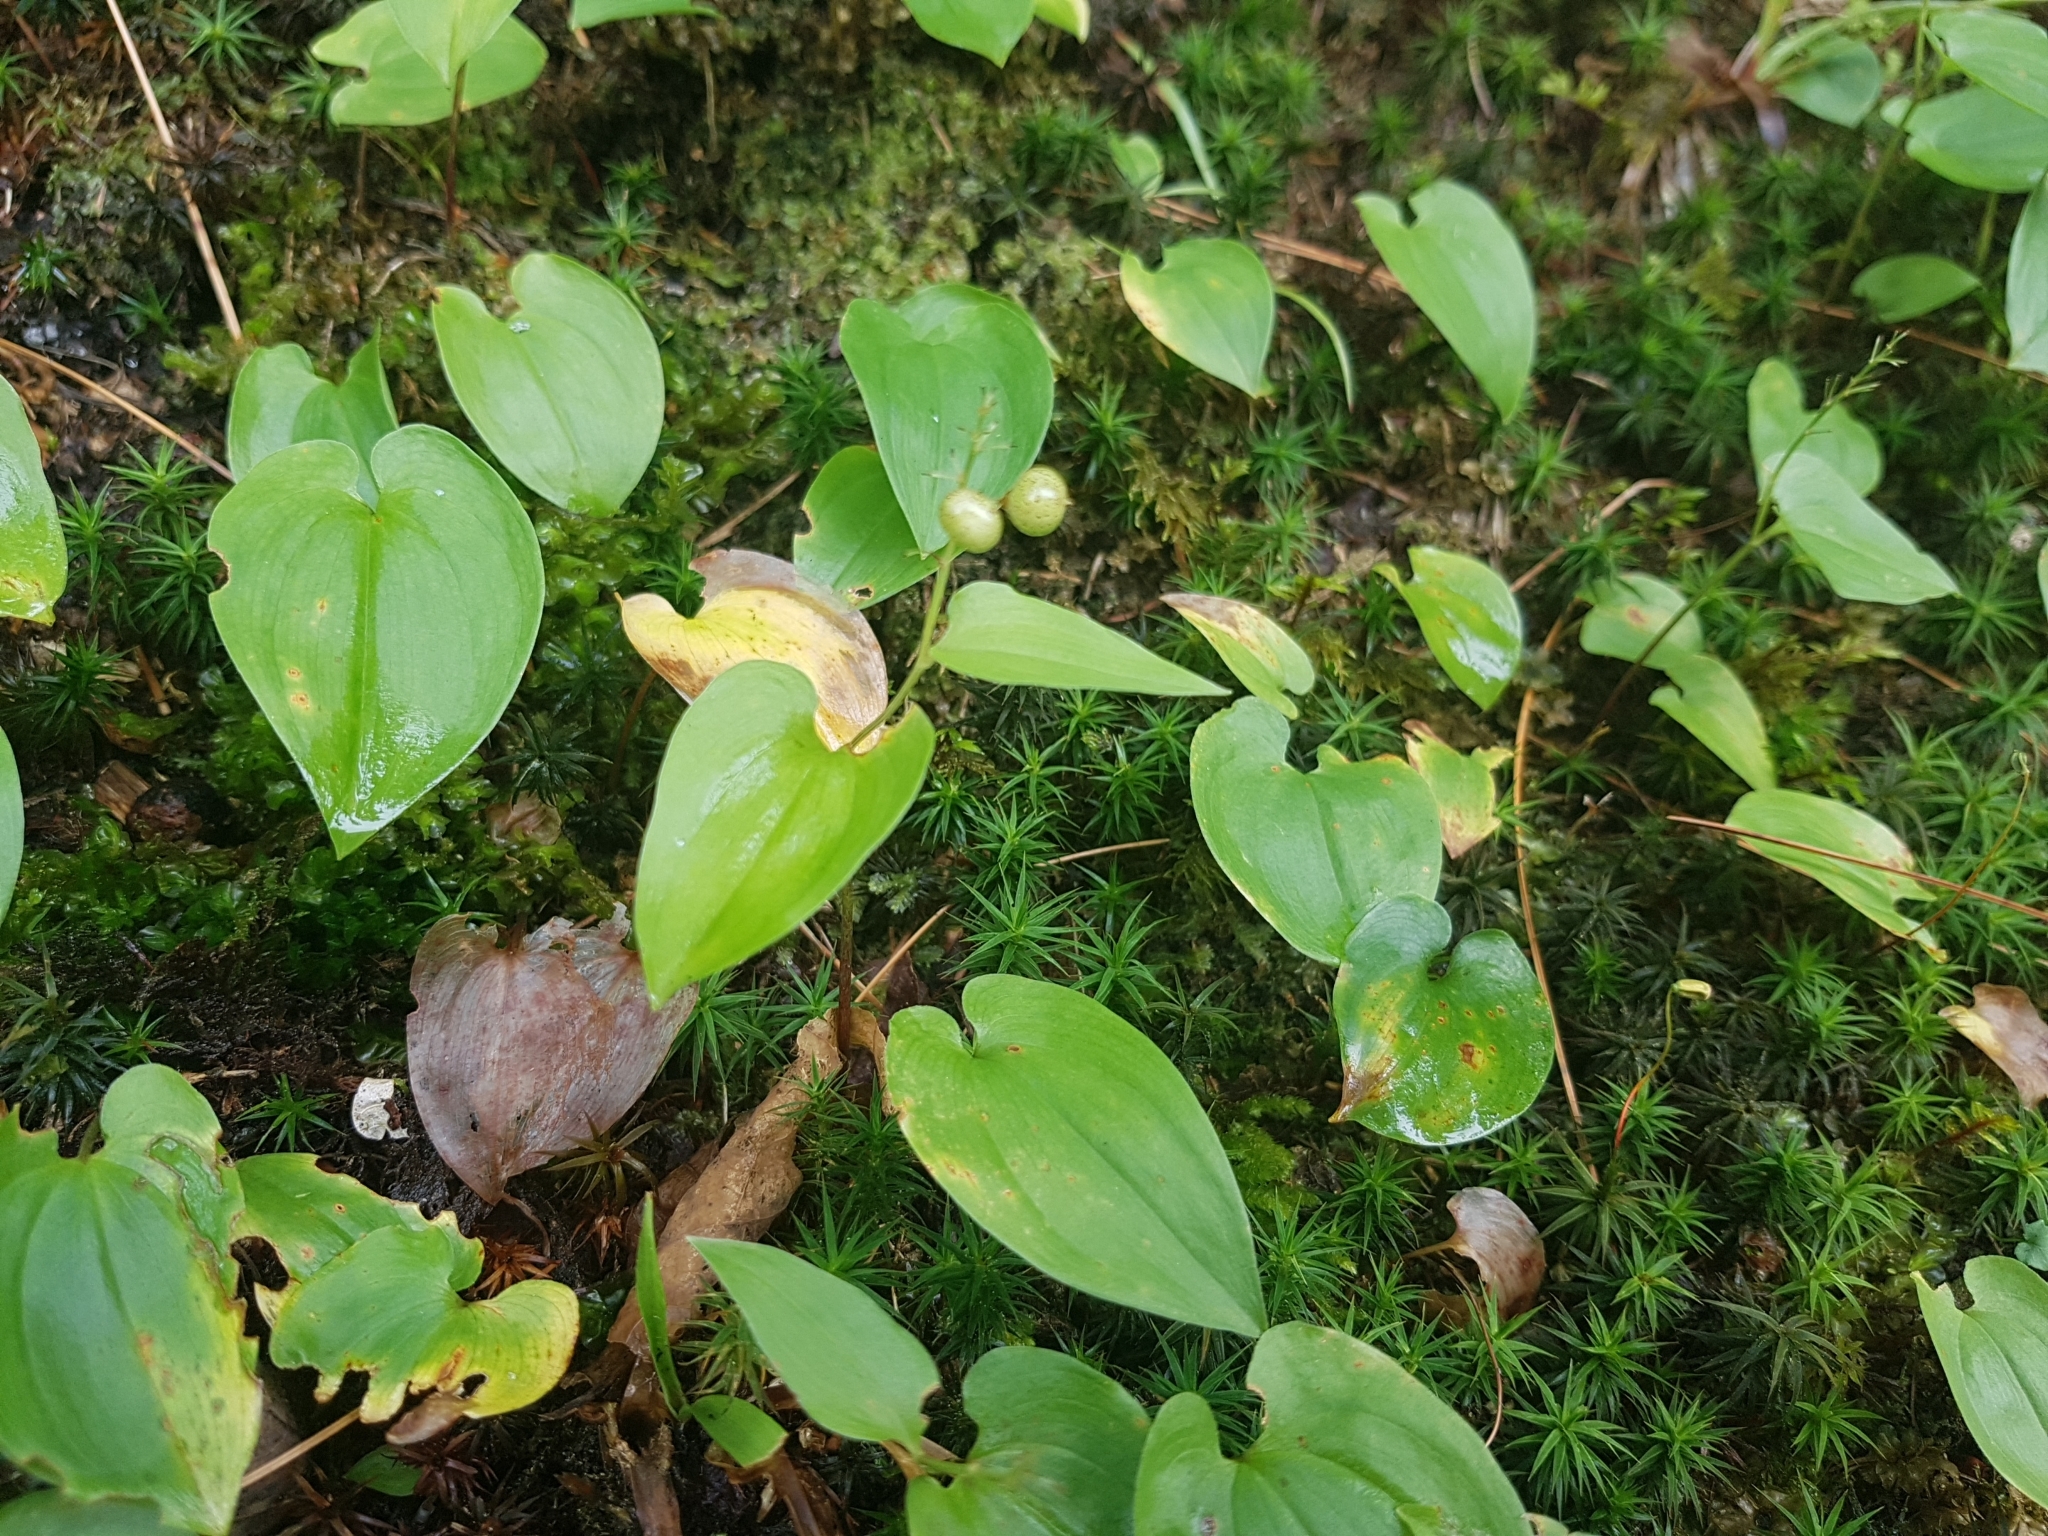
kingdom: Plantae
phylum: Tracheophyta
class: Liliopsida
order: Asparagales
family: Asparagaceae
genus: Maianthemum
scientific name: Maianthemum bifolium
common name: May lily
